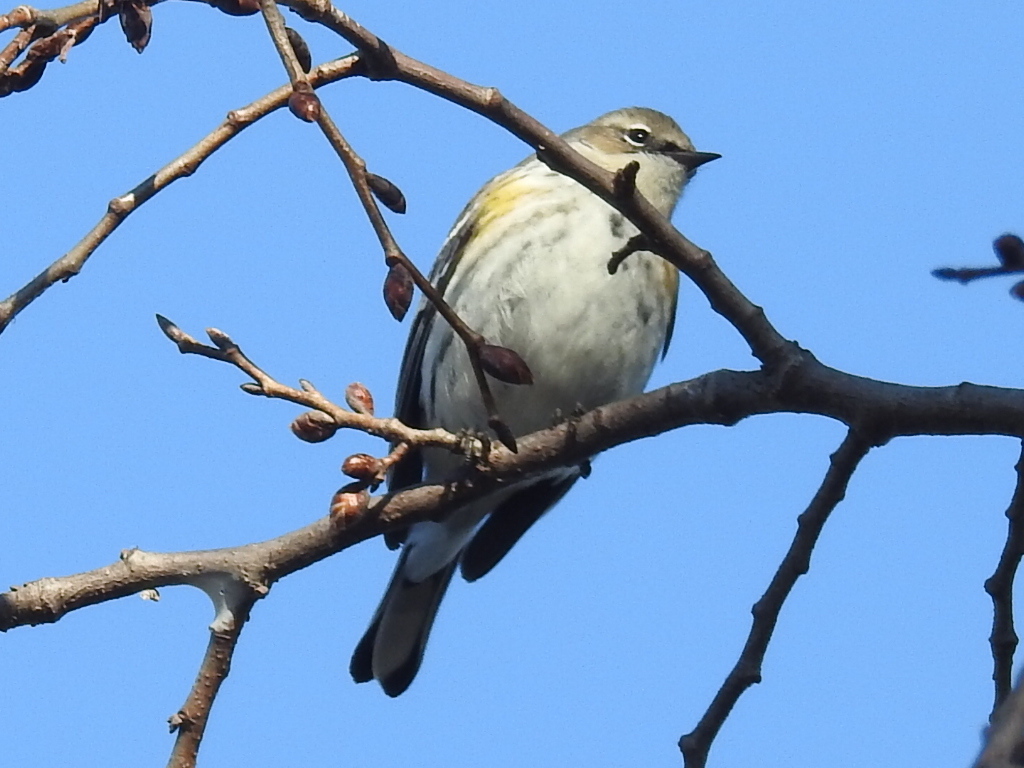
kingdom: Animalia
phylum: Chordata
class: Aves
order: Passeriformes
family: Parulidae
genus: Setophaga
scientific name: Setophaga coronata
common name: Myrtle warbler
